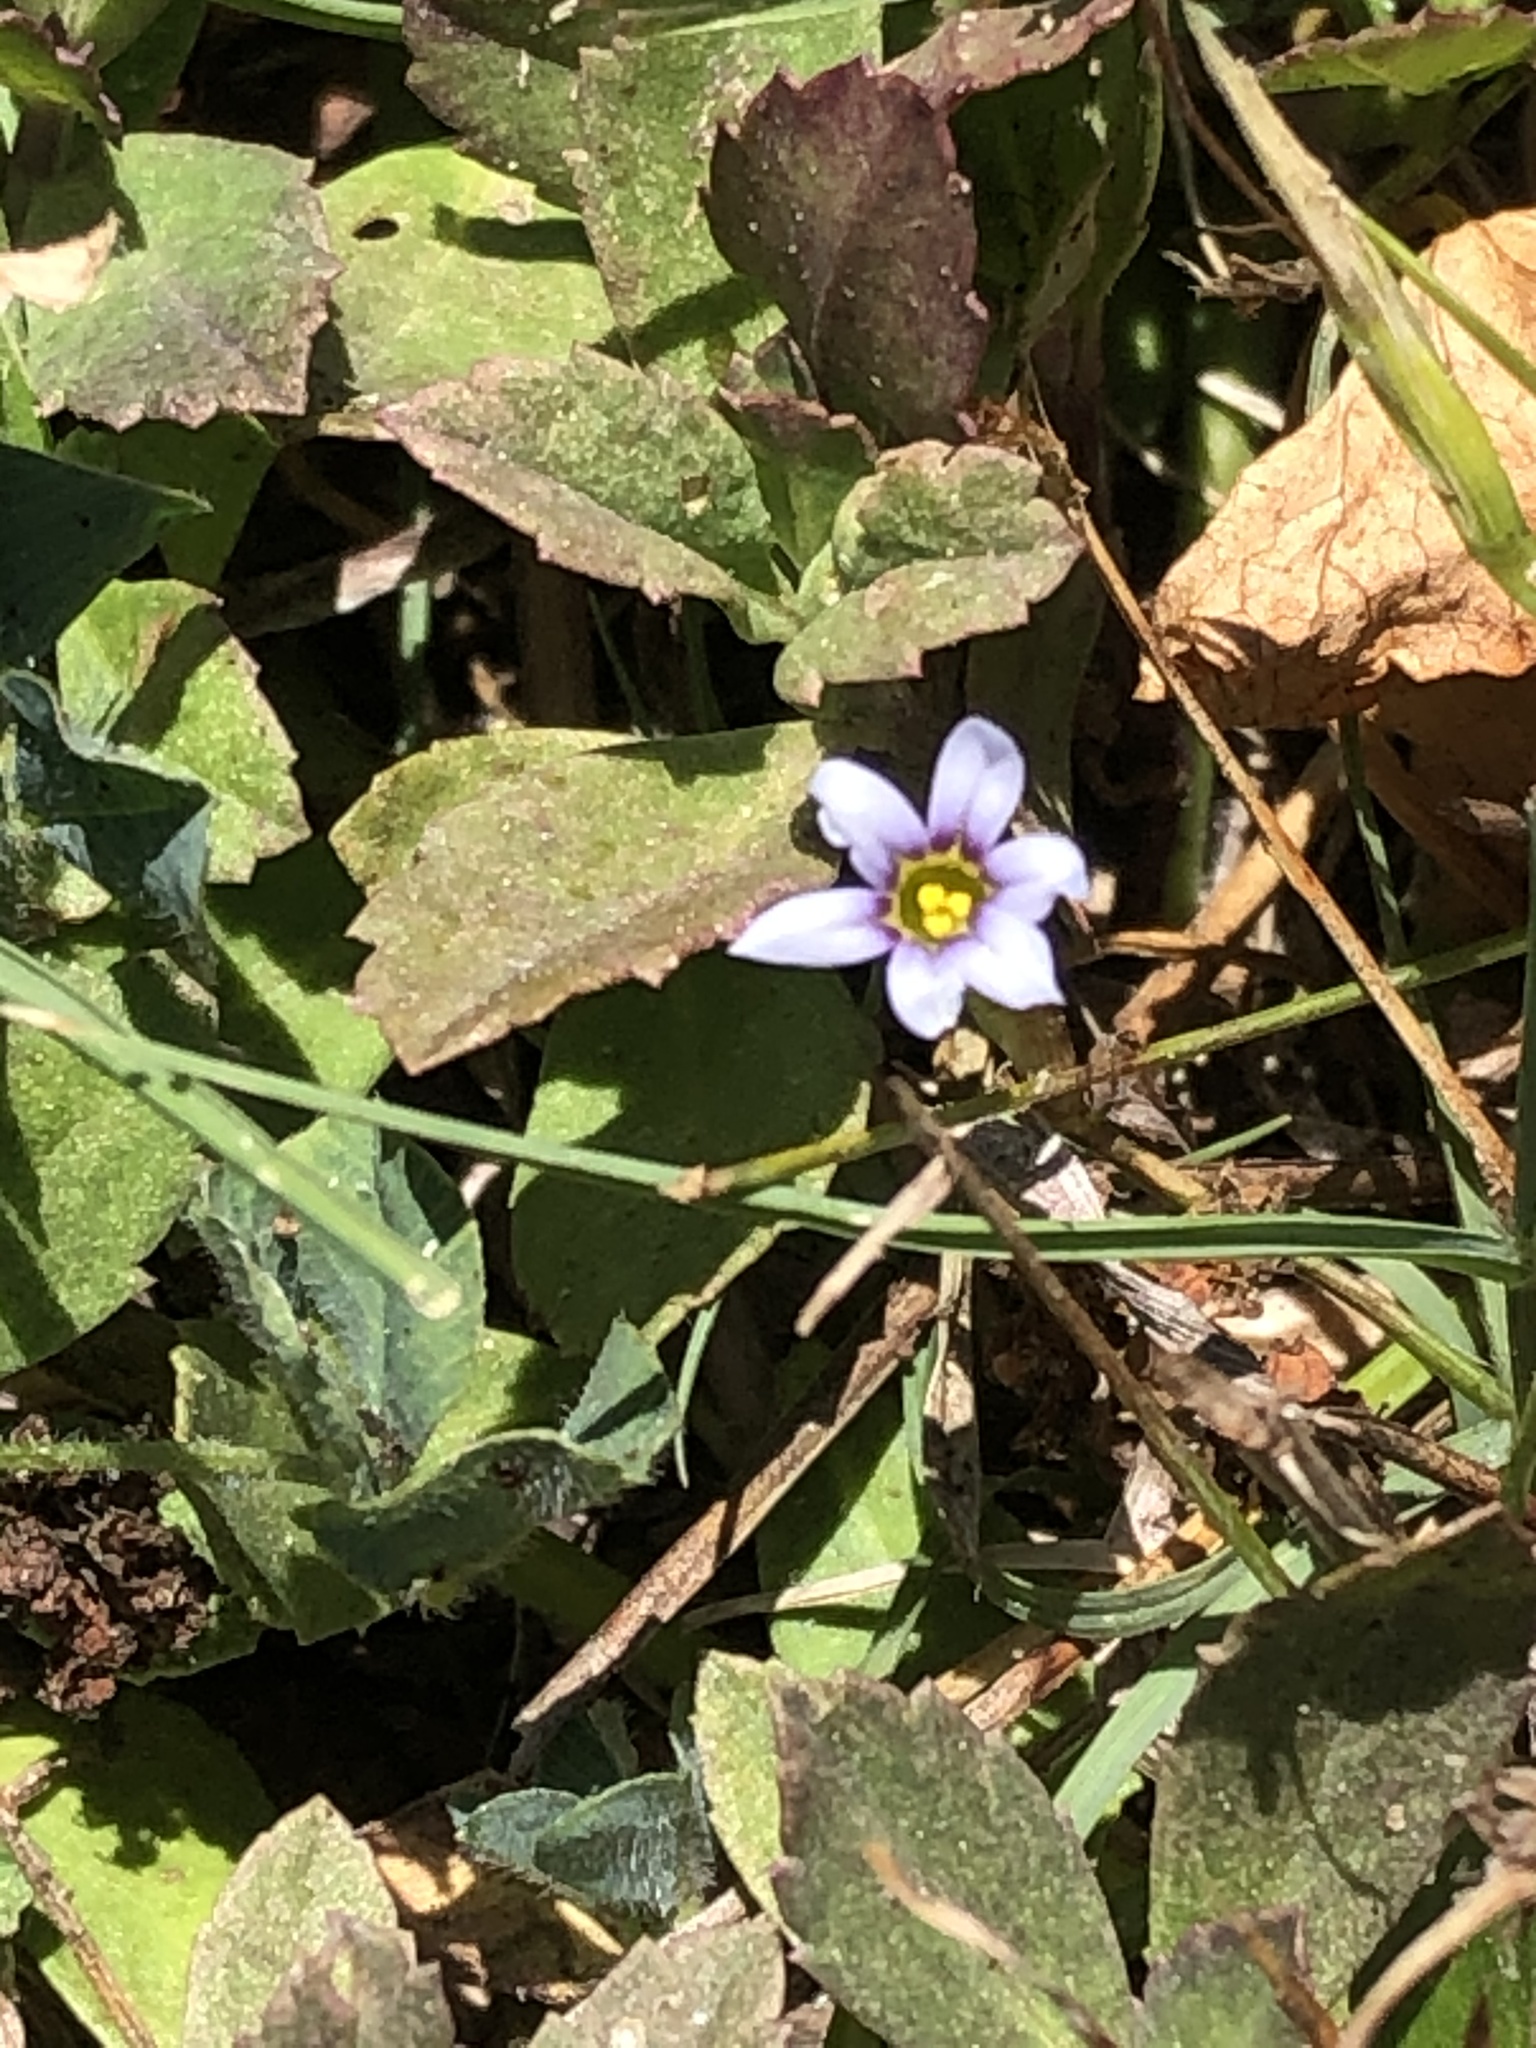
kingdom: Plantae
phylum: Tracheophyta
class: Liliopsida
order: Asparagales
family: Iridaceae
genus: Sisyrinchium
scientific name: Sisyrinchium micranthum
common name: Bermuda pigroot
